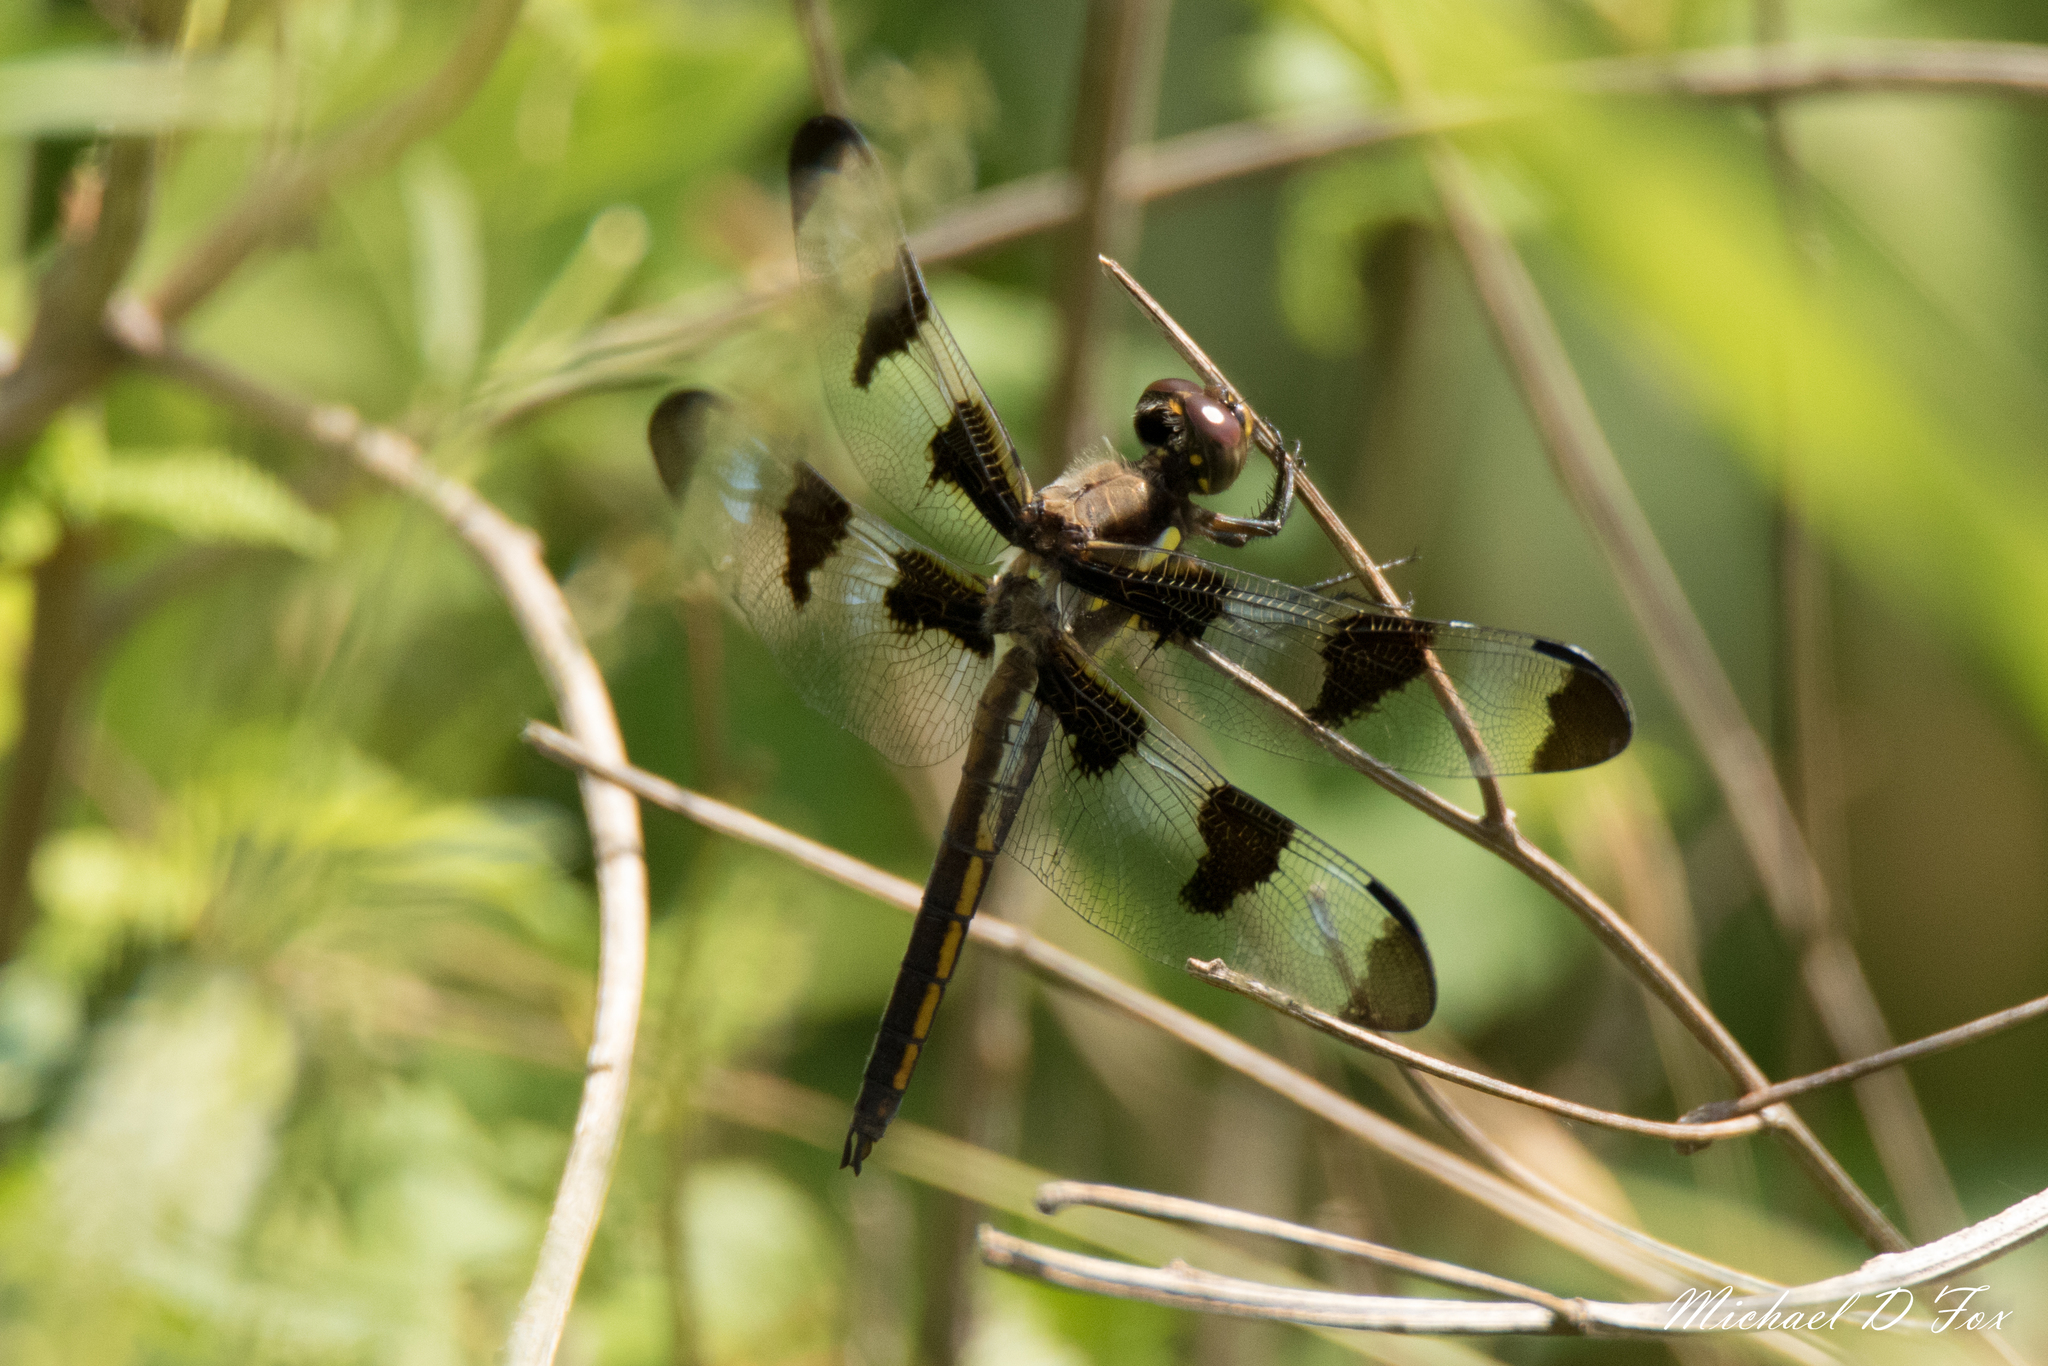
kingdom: Animalia
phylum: Arthropoda
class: Insecta
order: Odonata
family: Libellulidae
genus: Libellula
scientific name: Libellula pulchella
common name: Twelve-spotted skimmer
